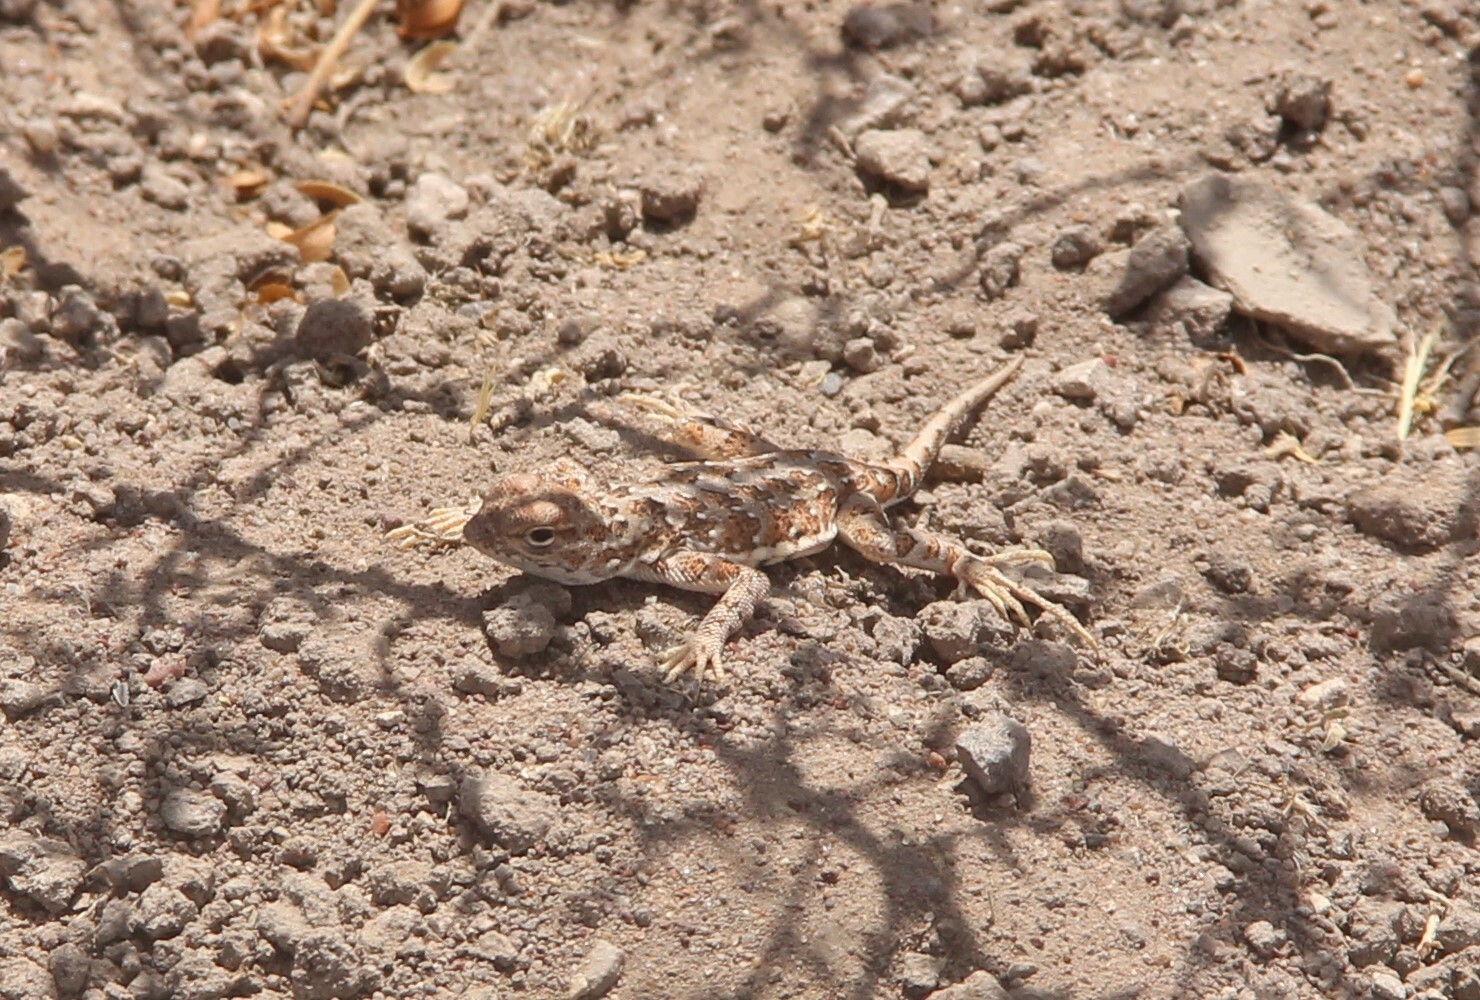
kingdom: Animalia
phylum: Chordata
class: Squamata
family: Phrynosomatidae
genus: Holbrookia
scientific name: Holbrookia maculata
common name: Lesser earless lizard
